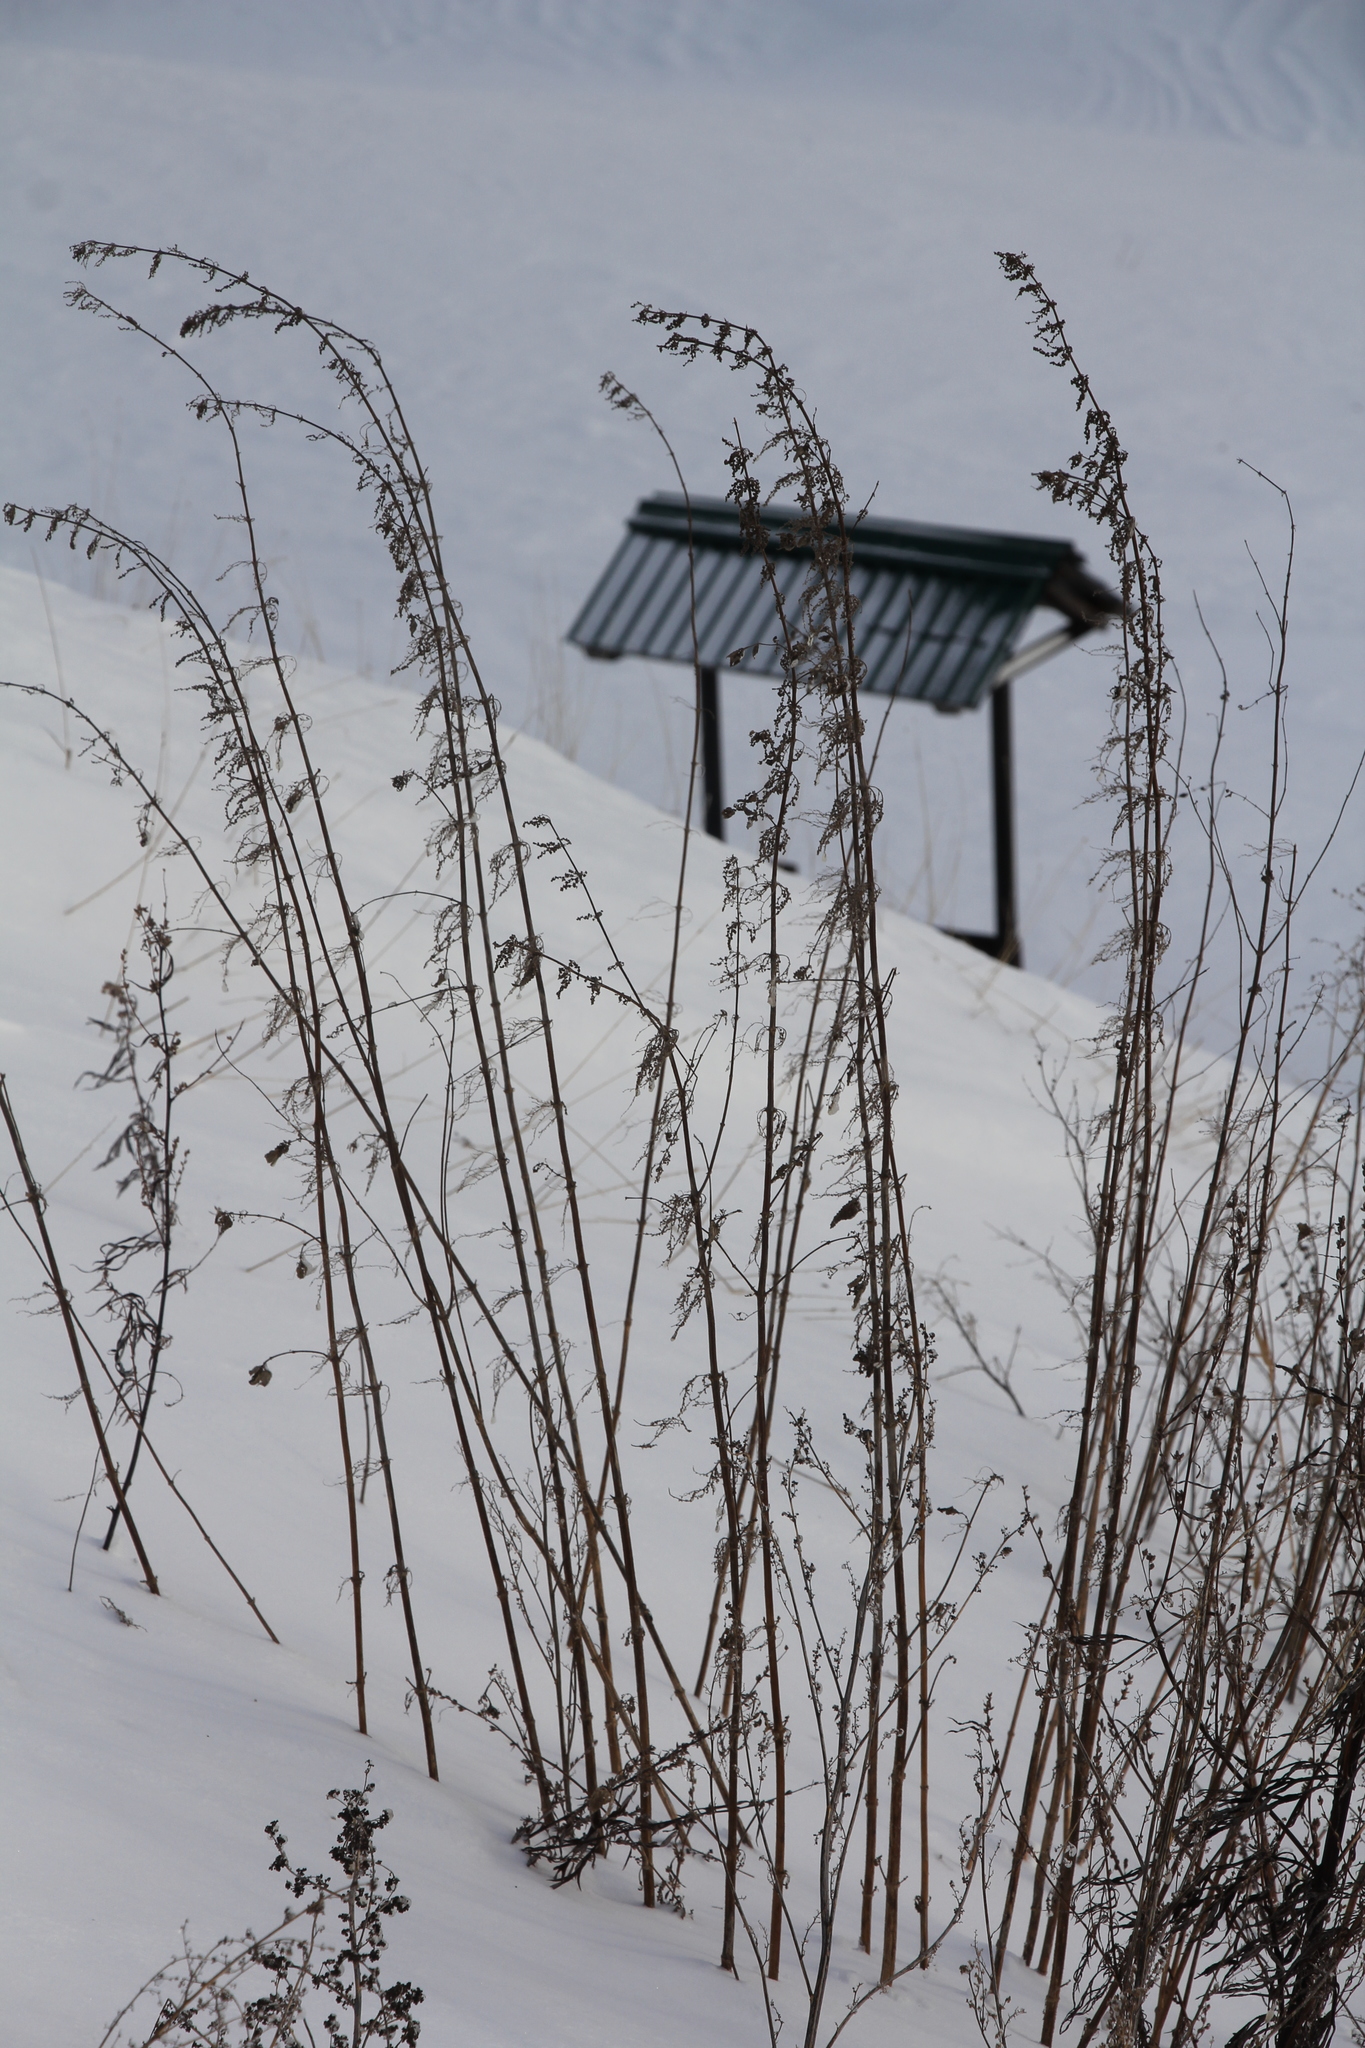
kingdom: Plantae
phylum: Tracheophyta
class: Magnoliopsida
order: Rosales
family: Urticaceae
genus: Urtica
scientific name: Urtica dioica
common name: Common nettle
